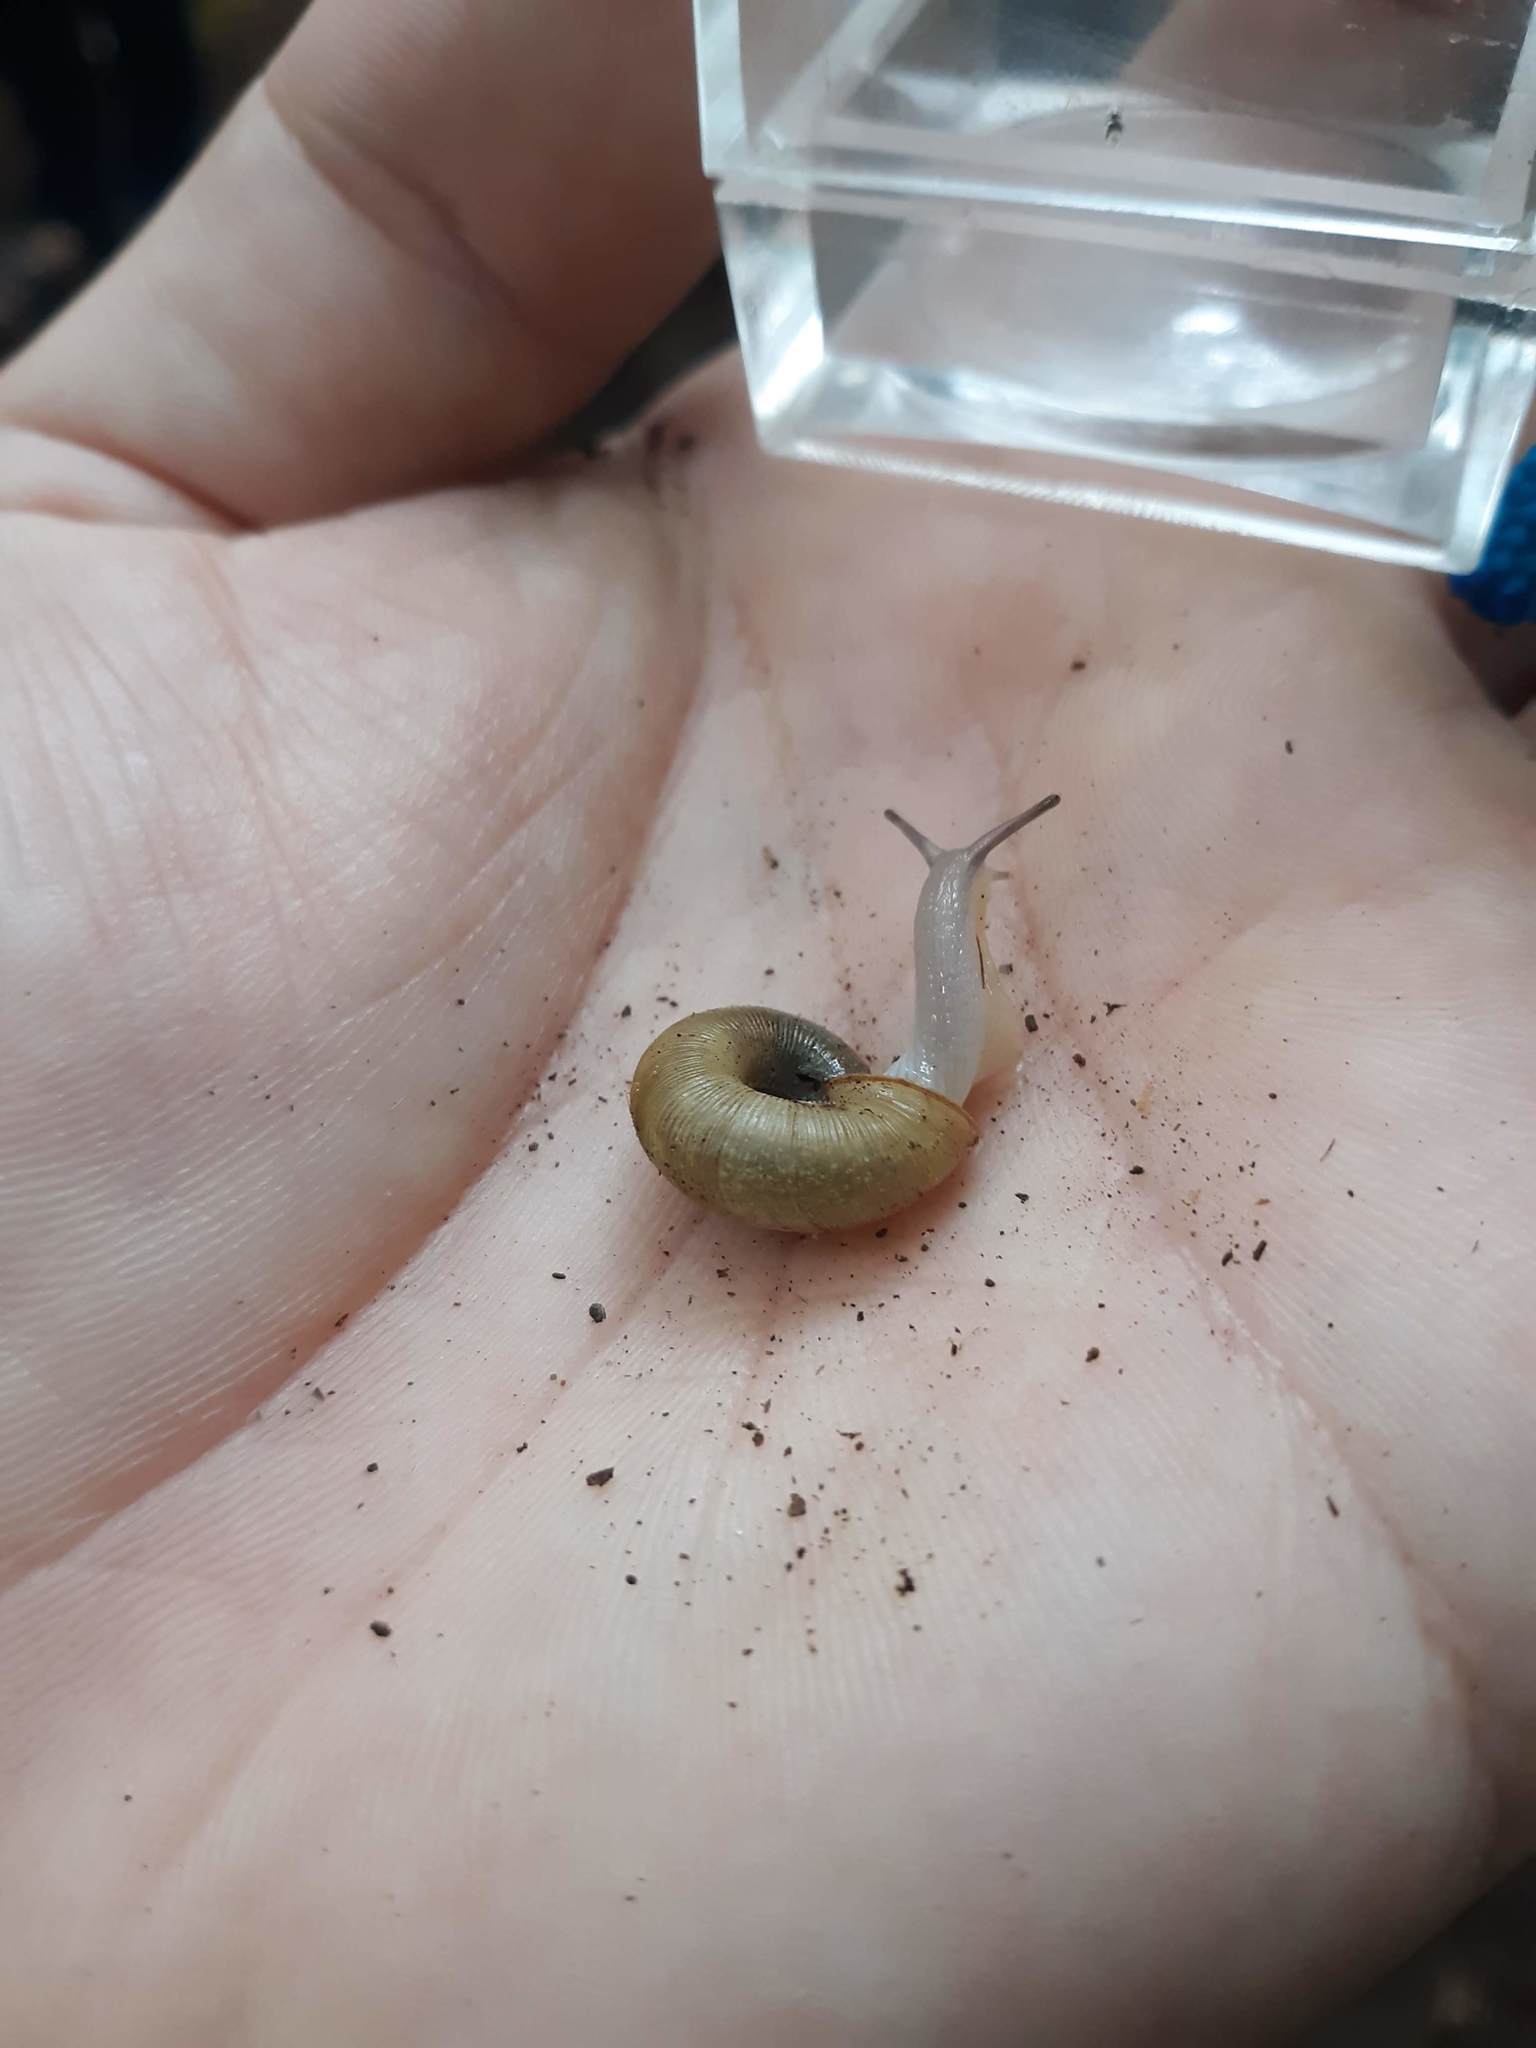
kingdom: Animalia
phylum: Mollusca
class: Gastropoda
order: Stylommatophora
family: Haplotrematidae
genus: Ancotrema
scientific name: Ancotrema sportella
